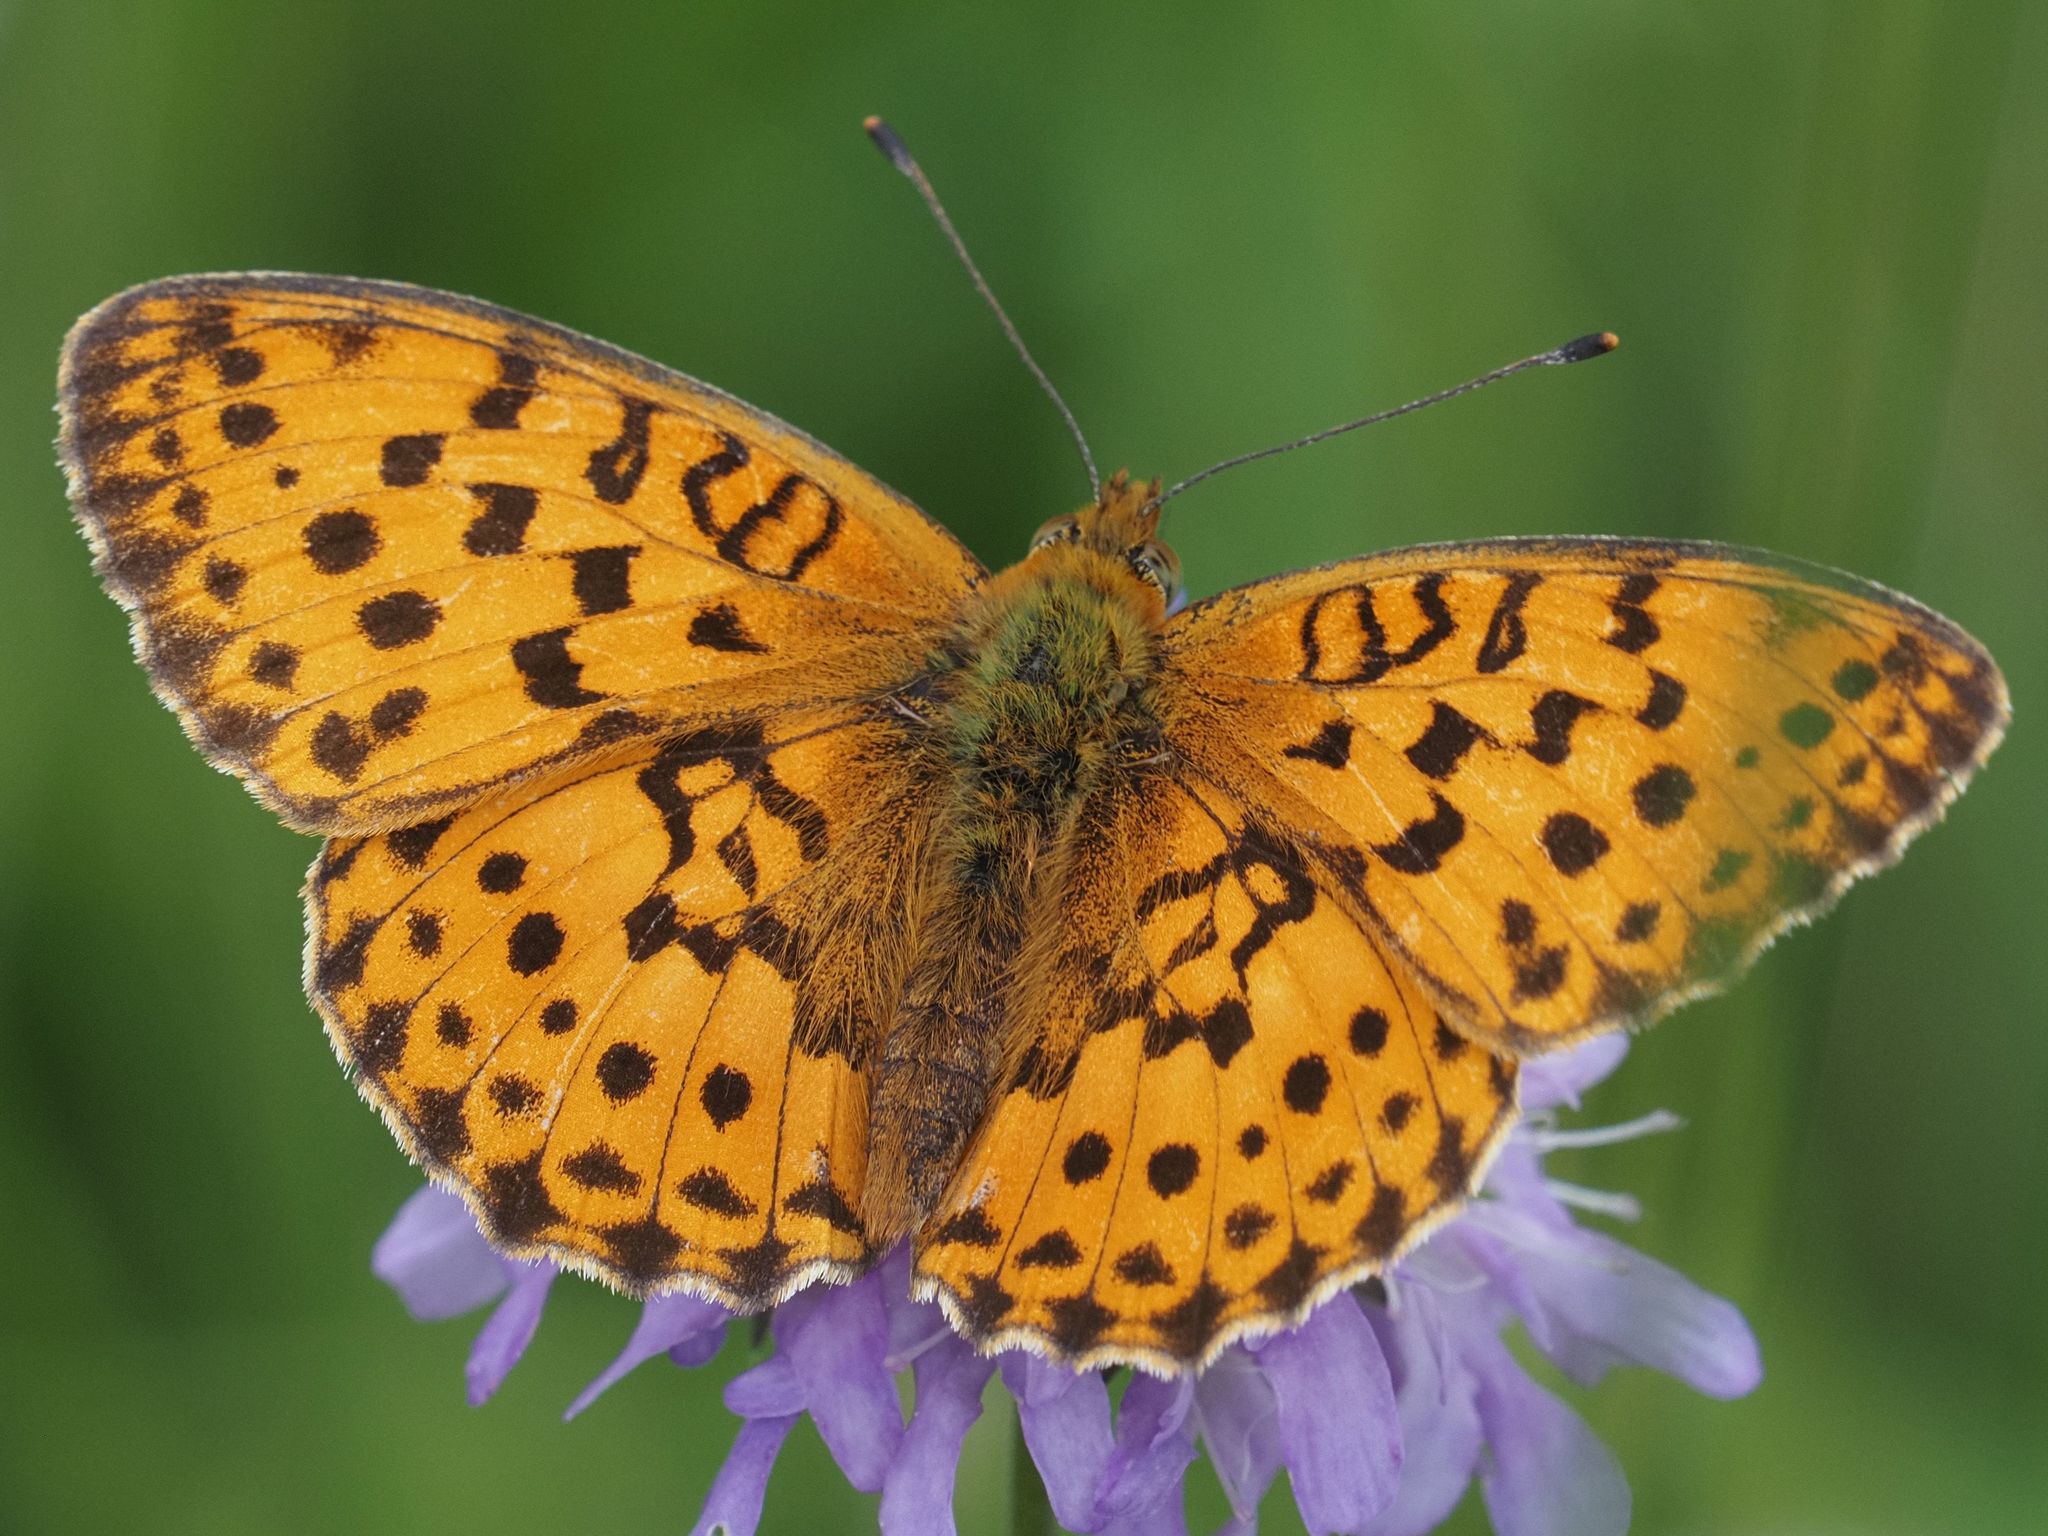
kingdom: Animalia
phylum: Arthropoda
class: Insecta
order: Lepidoptera
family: Nymphalidae
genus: Brenthis
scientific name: Brenthis daphne
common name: Marbled fritillary
